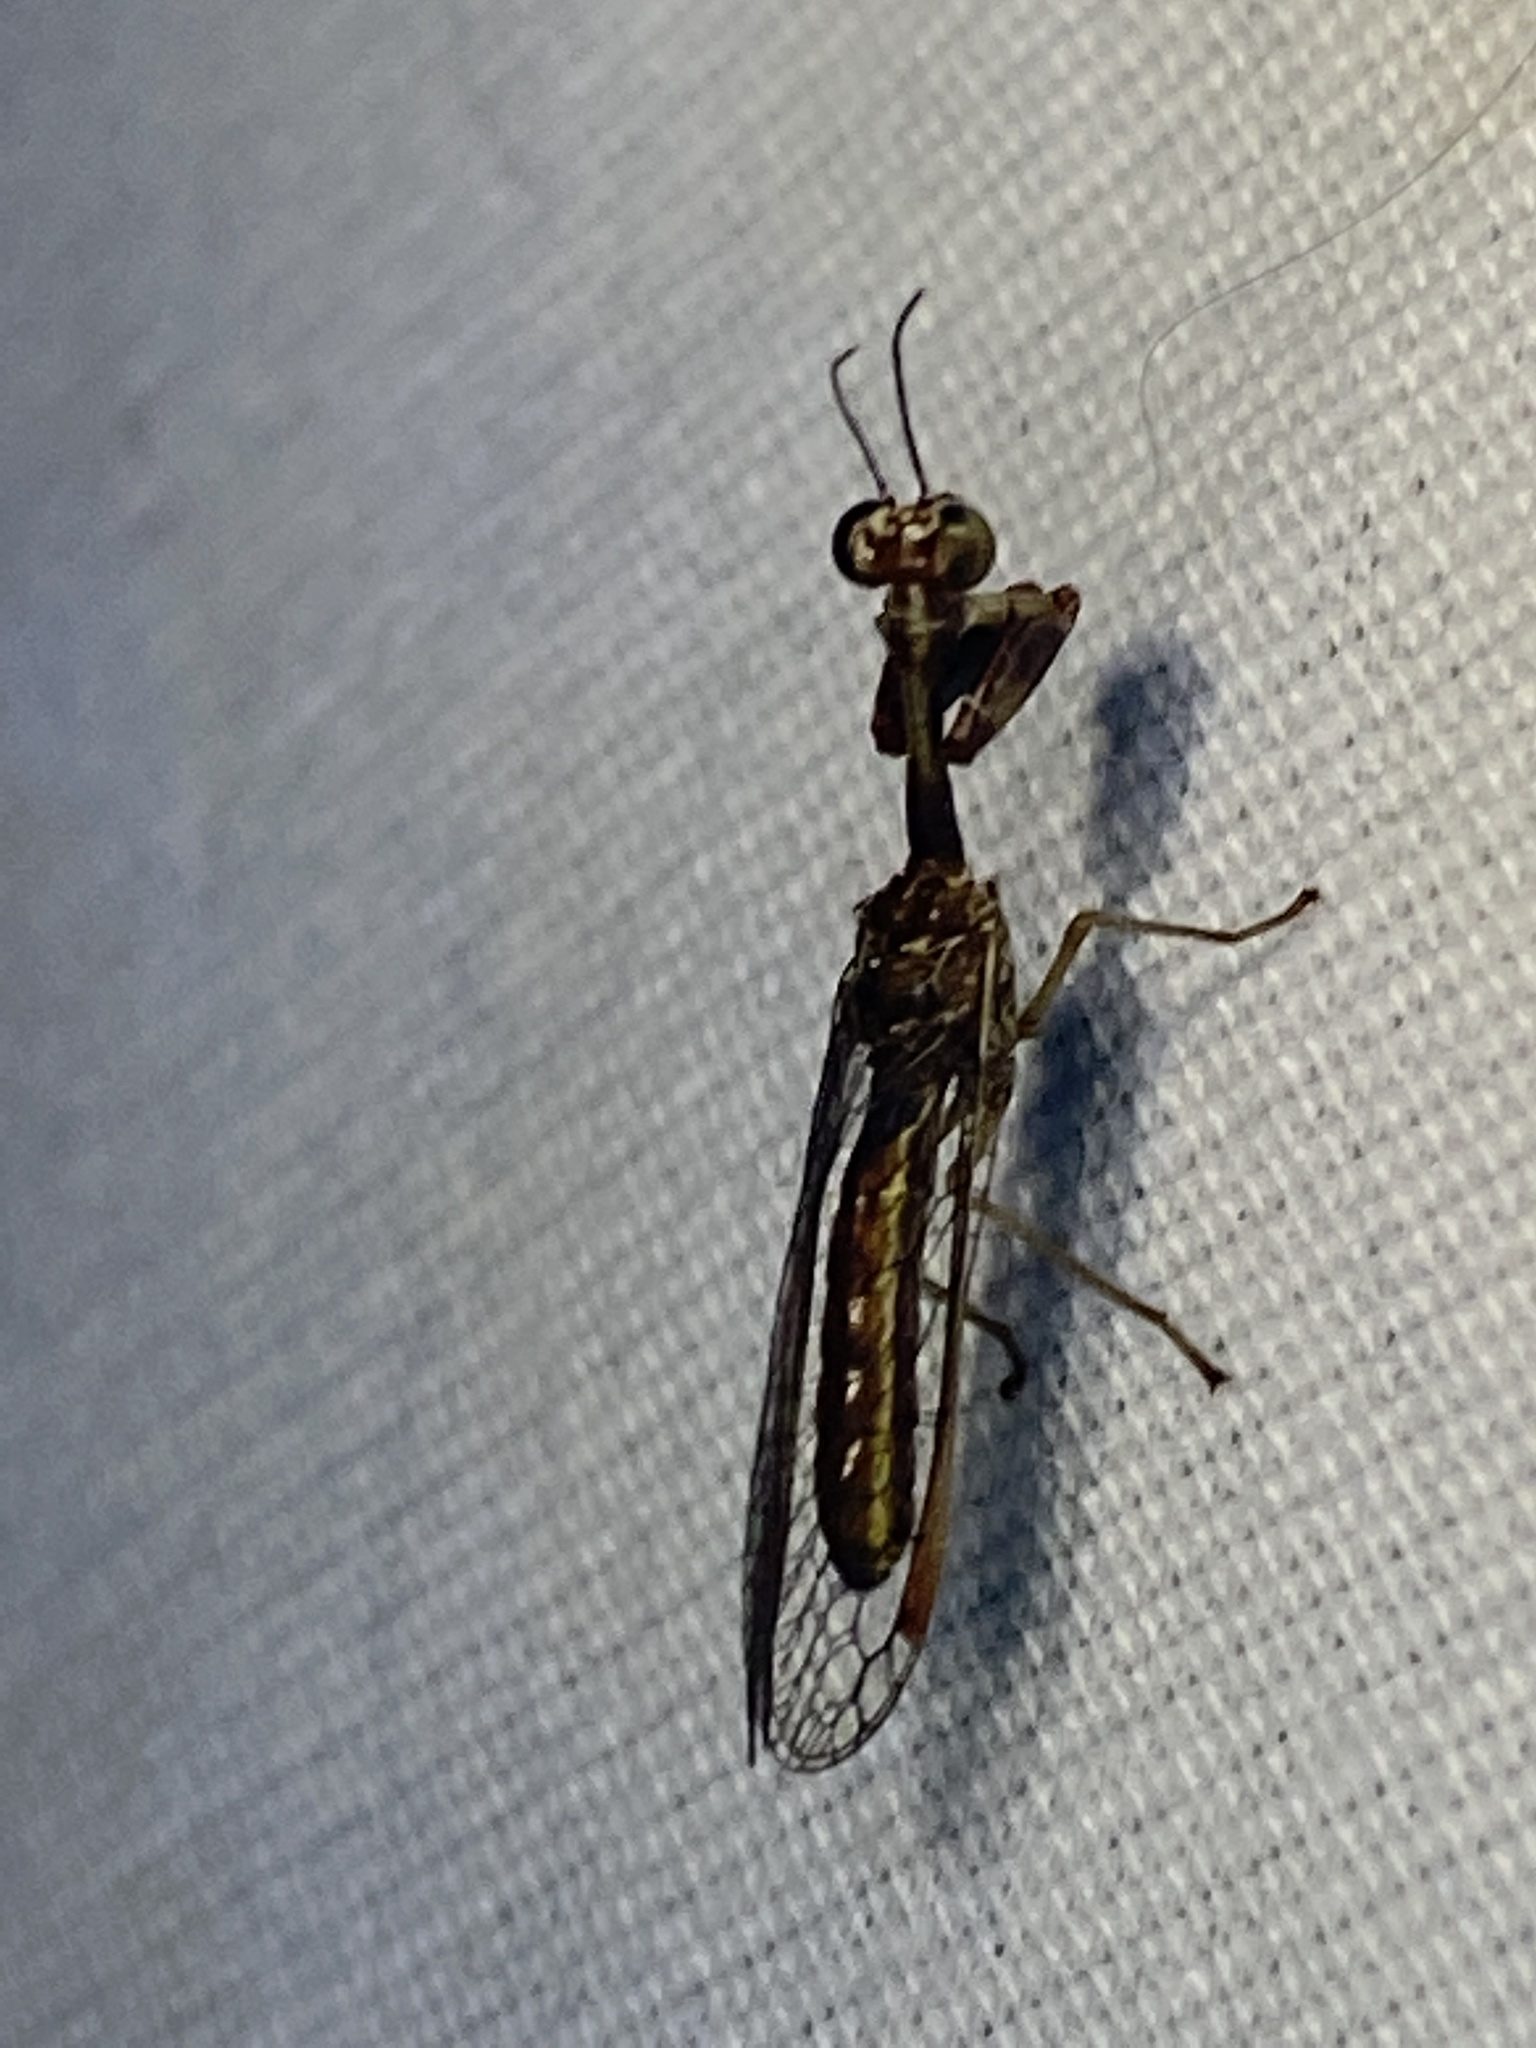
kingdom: Animalia
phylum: Arthropoda
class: Insecta
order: Neuroptera
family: Mantispidae
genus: Leptomantispa
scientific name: Leptomantispa pulchella
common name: Stevens's mantidfly
